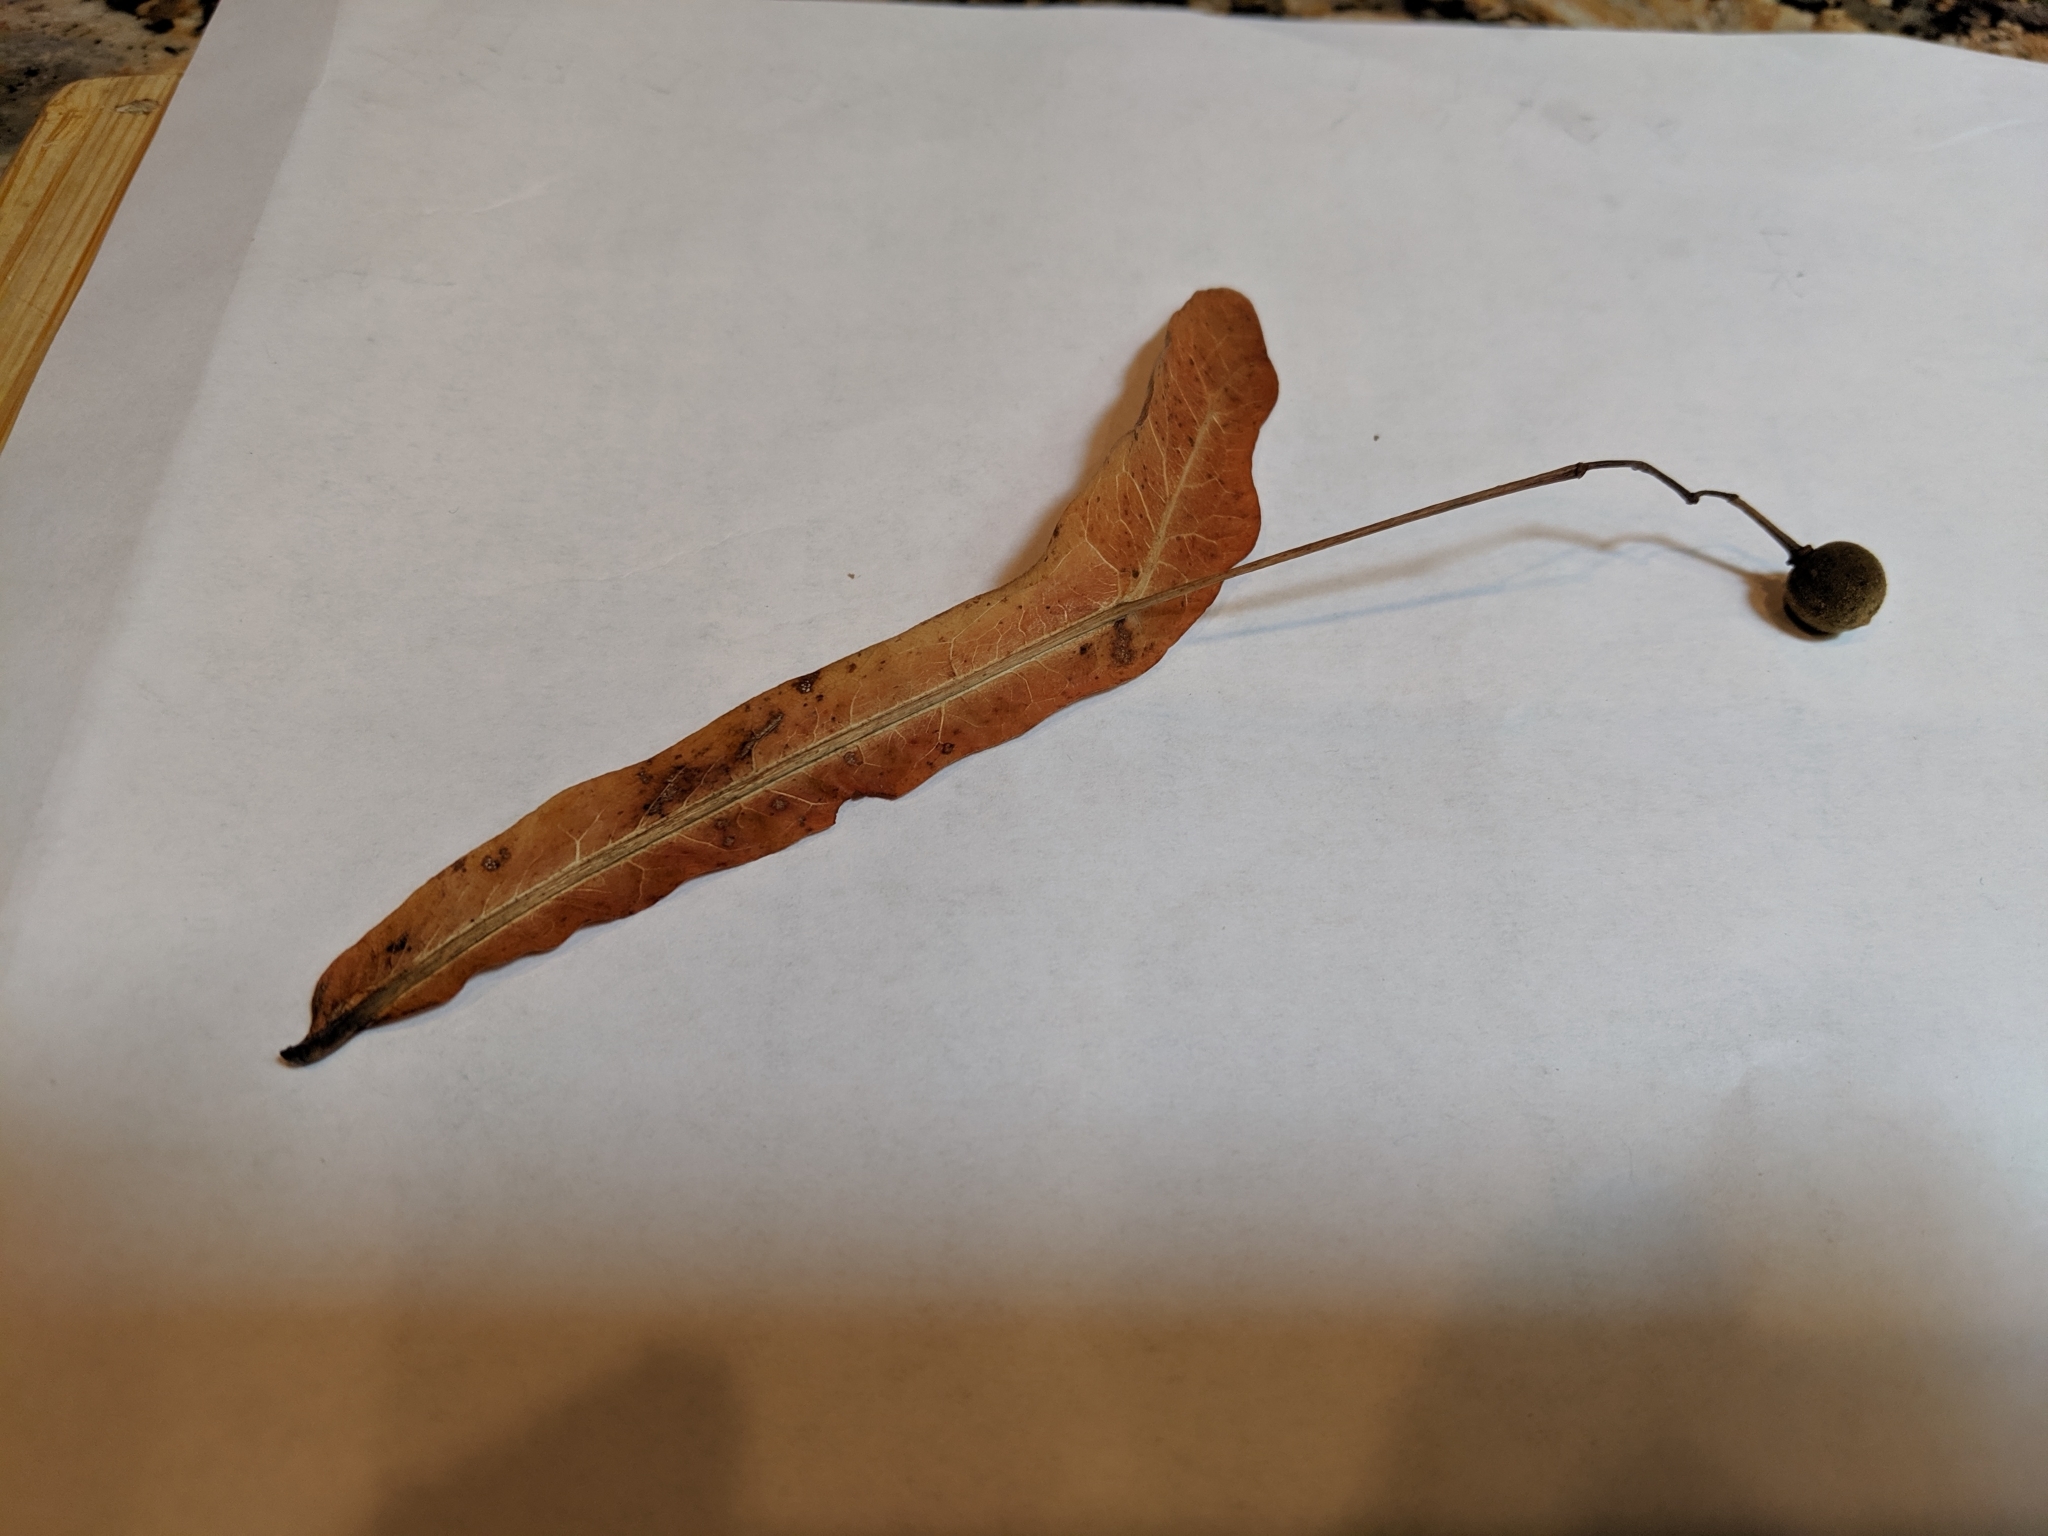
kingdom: Plantae
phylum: Tracheophyta
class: Magnoliopsida
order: Malvales
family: Malvaceae
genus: Tilia
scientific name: Tilia americana
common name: Basswood
